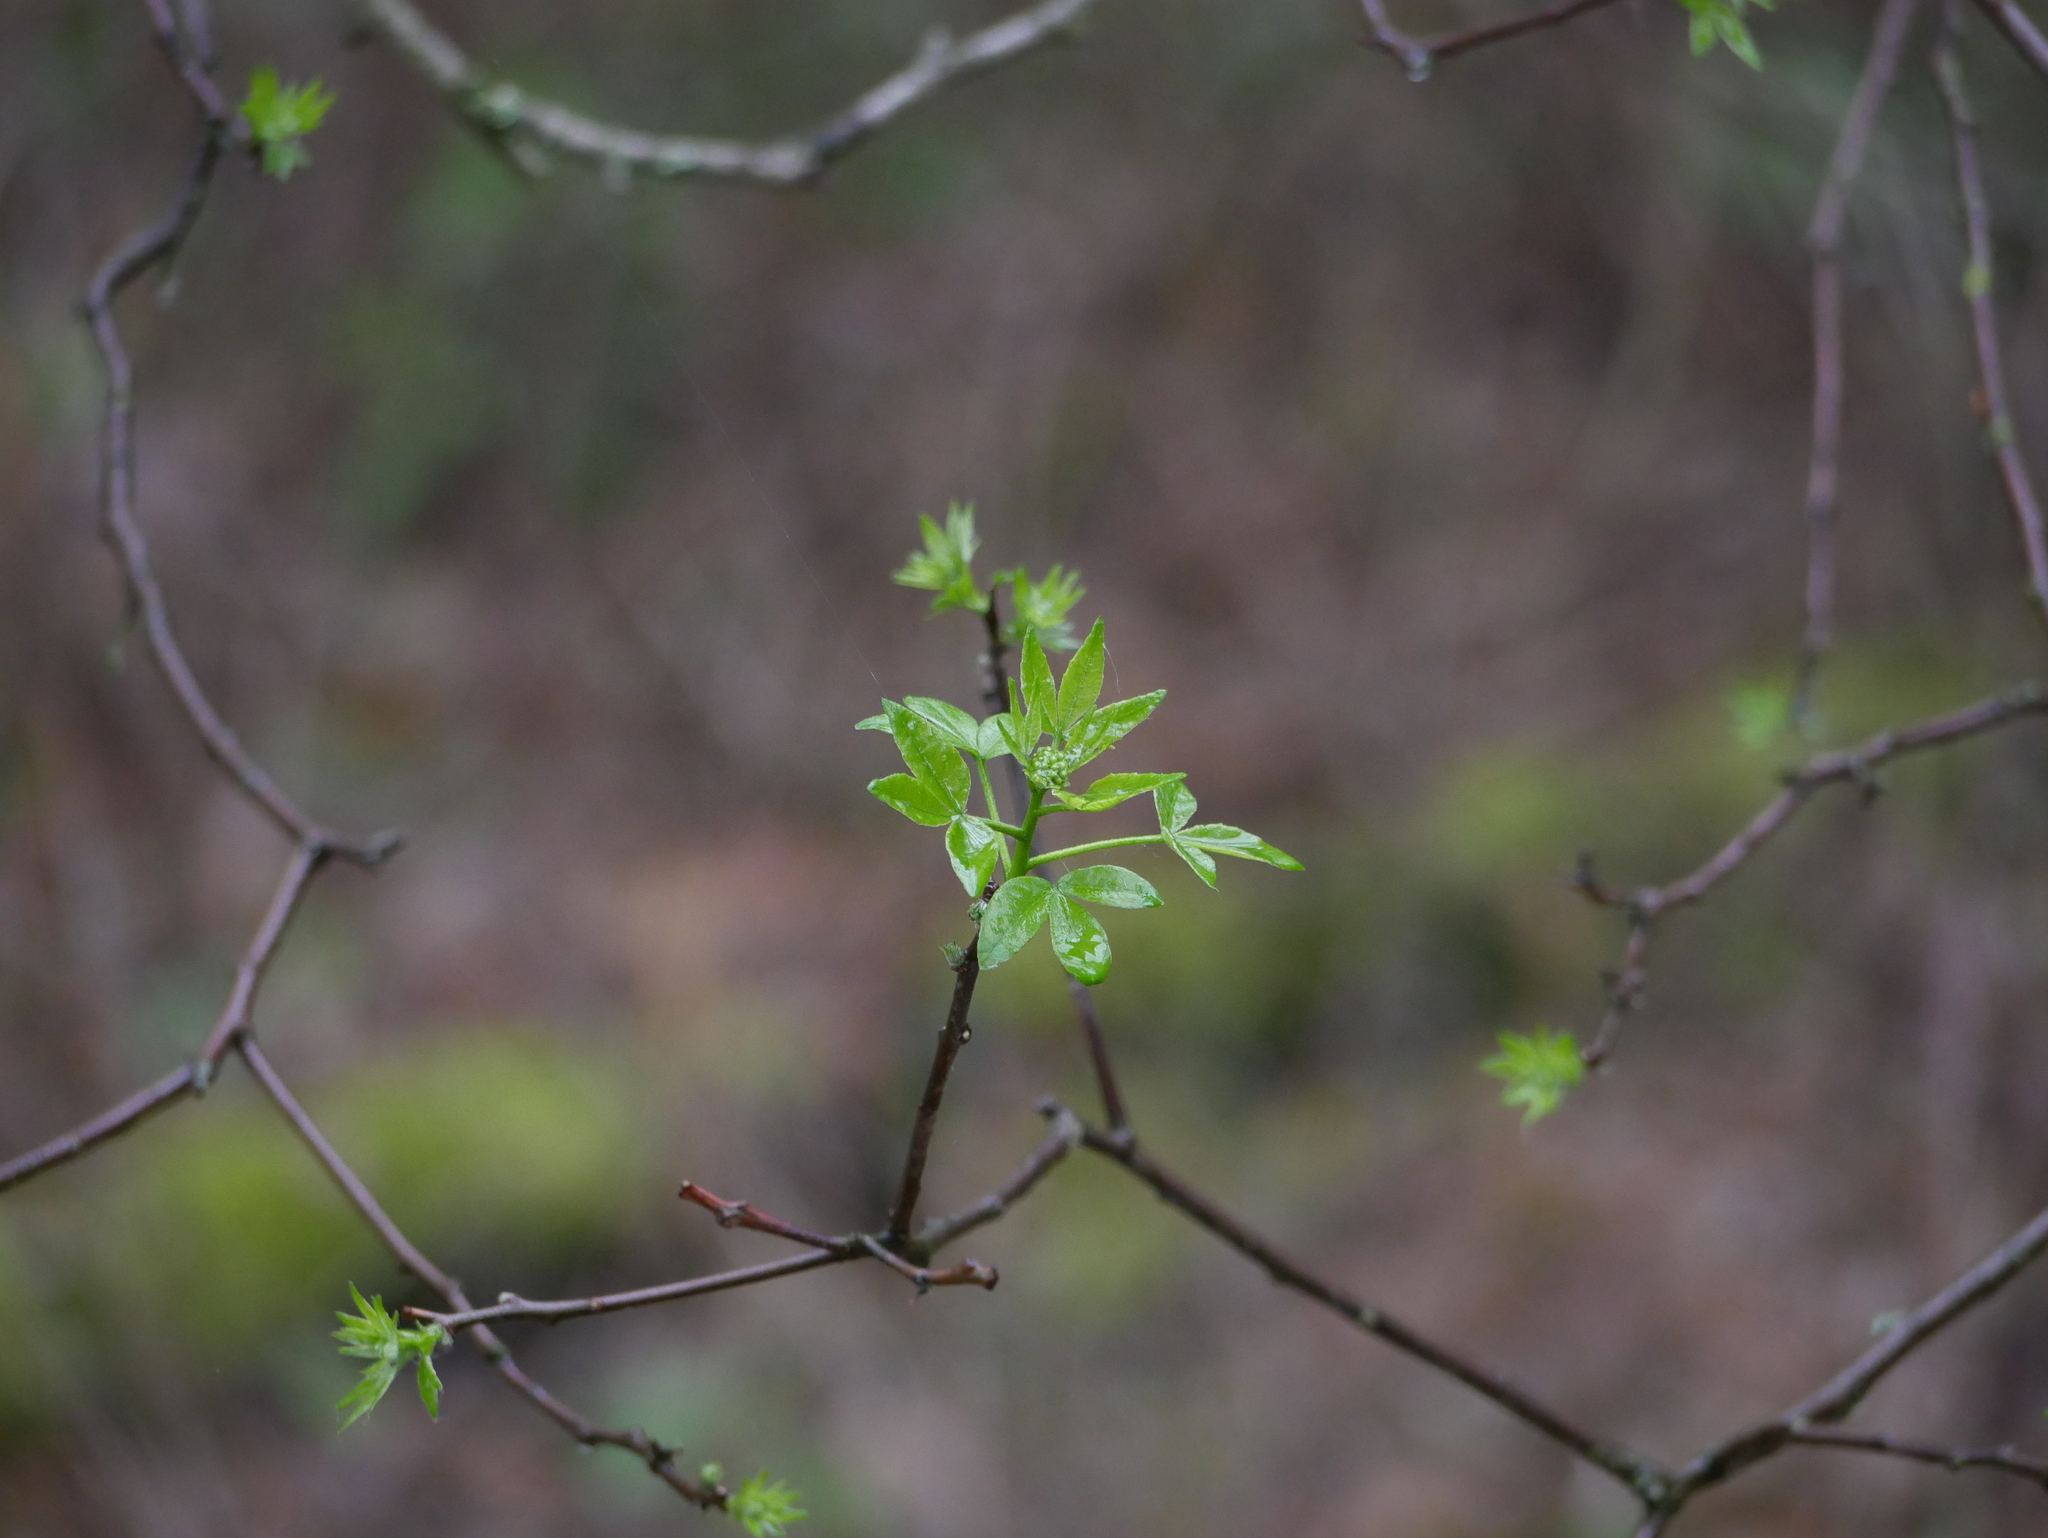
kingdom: Plantae
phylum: Tracheophyta
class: Magnoliopsida
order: Sapindales
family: Rutaceae
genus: Ptelea
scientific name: Ptelea trifoliata
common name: Common hop-tree
